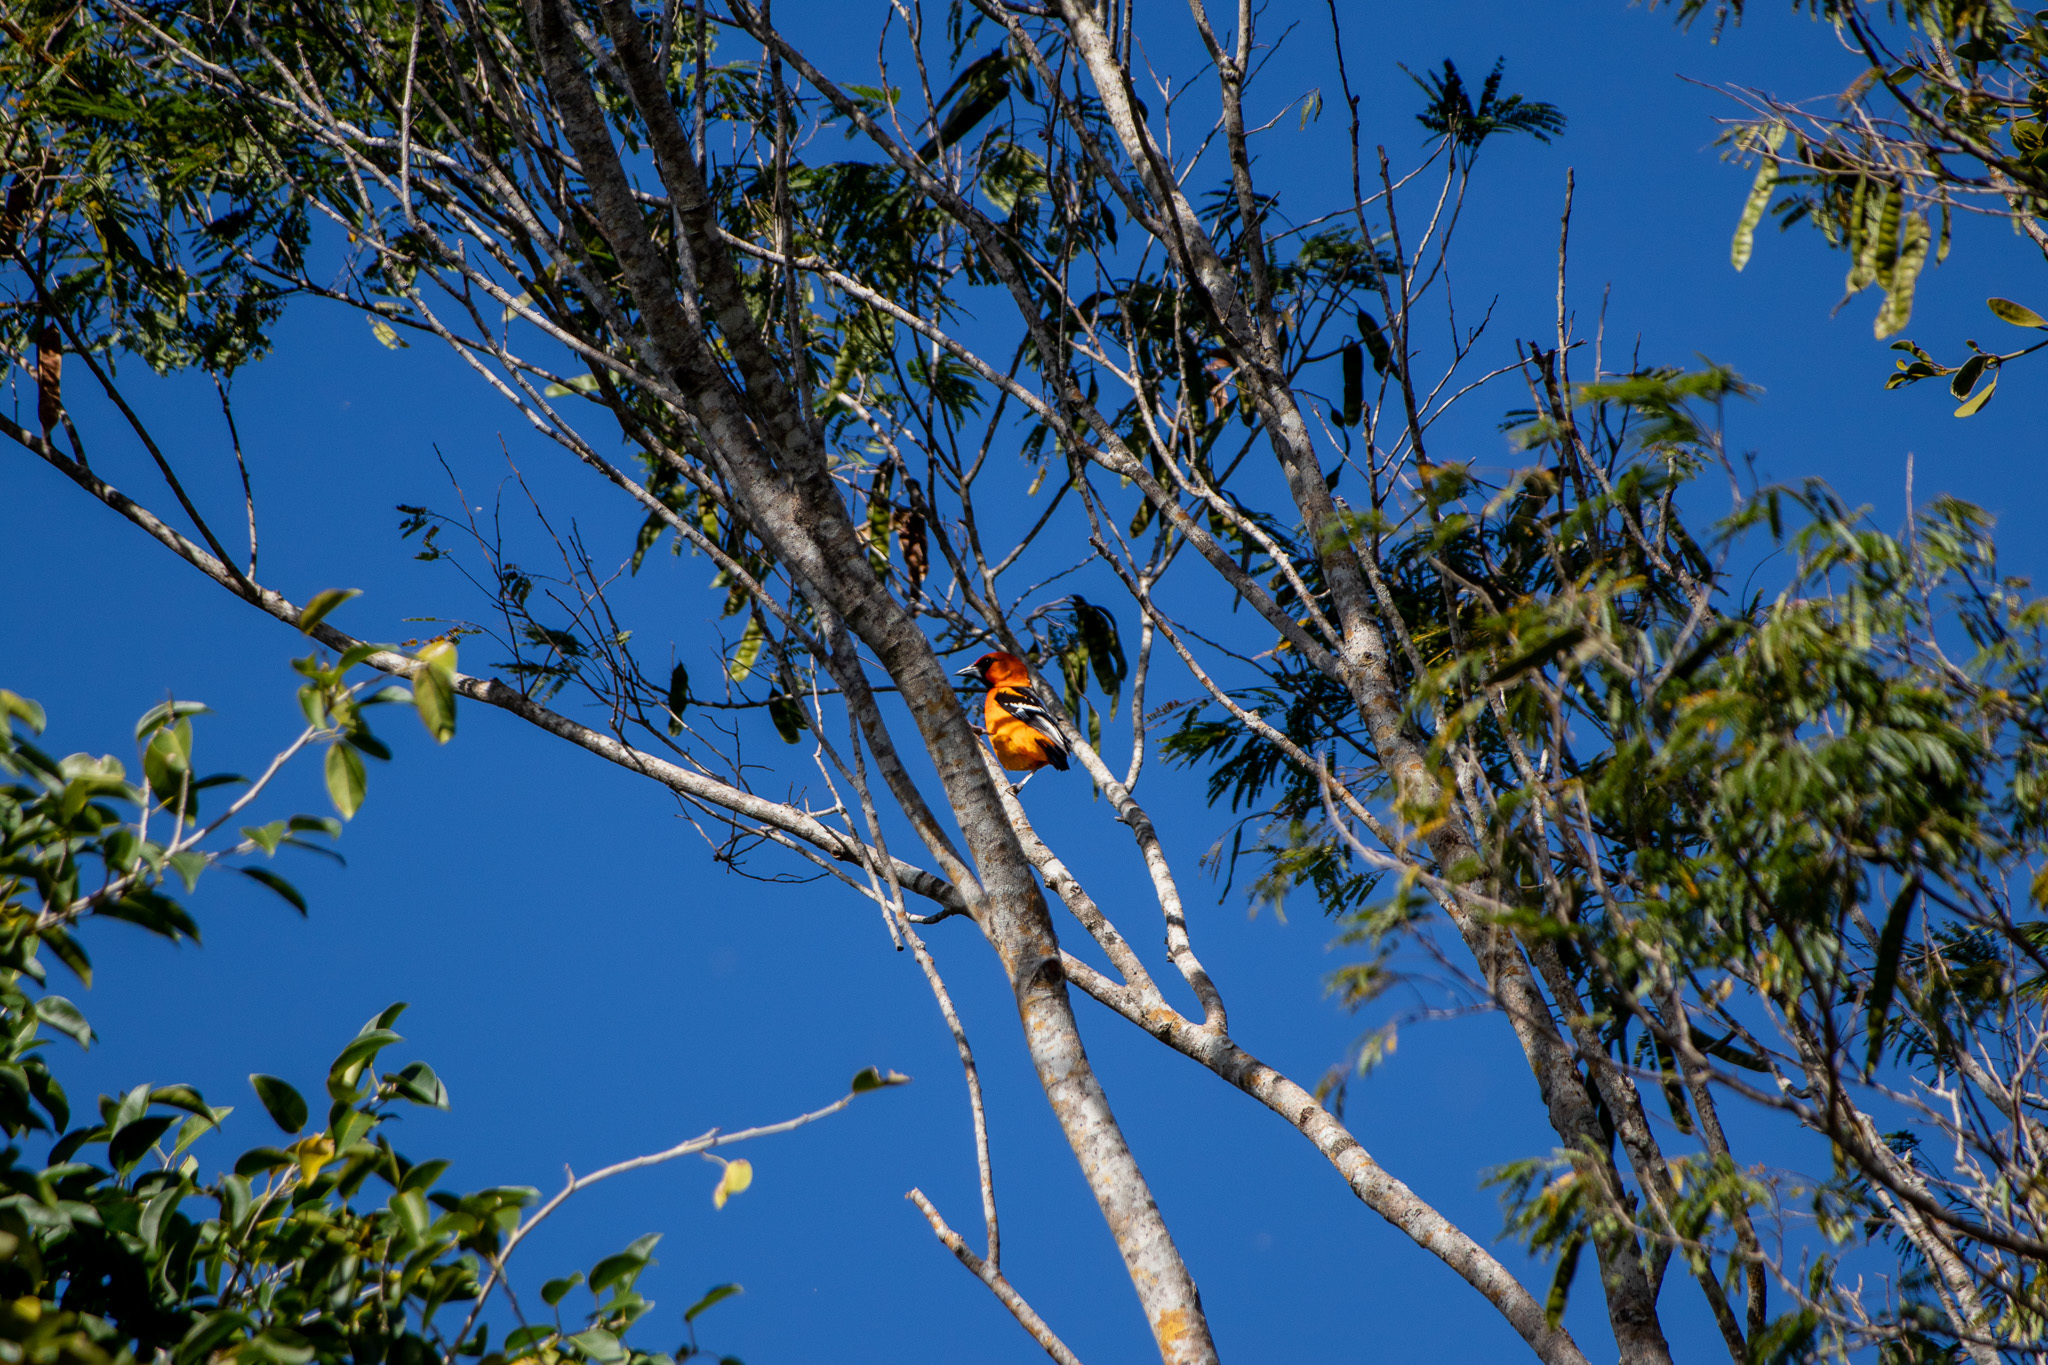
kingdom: Animalia
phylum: Chordata
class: Aves
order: Passeriformes
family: Icteridae
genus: Icterus
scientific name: Icterus gularis
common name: Altamira oriole
